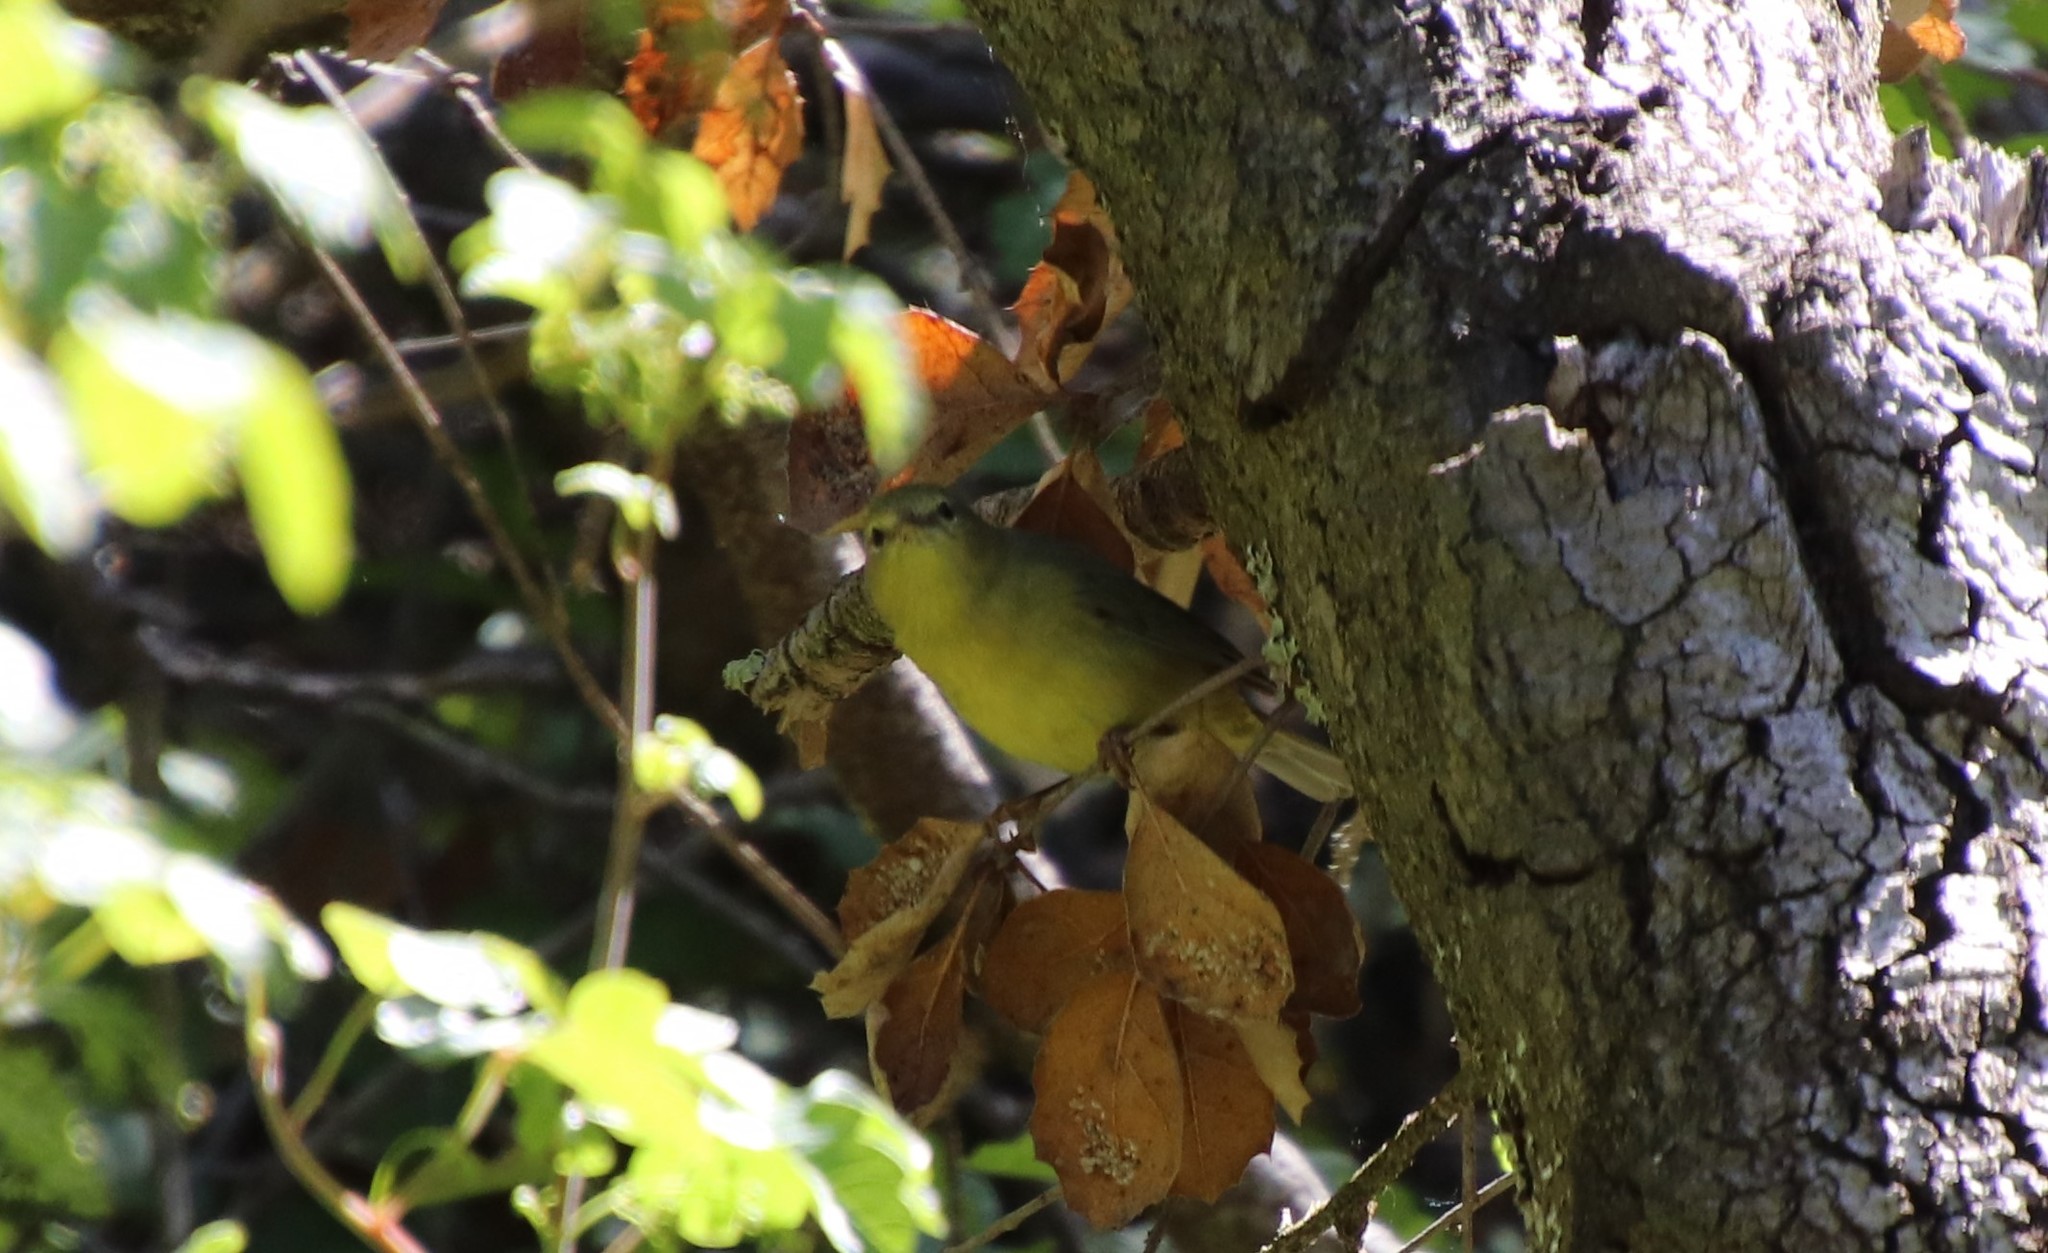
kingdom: Animalia
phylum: Chordata
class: Aves
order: Passeriformes
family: Parulidae
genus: Leiothlypis
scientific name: Leiothlypis celata
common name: Orange-crowned warbler
